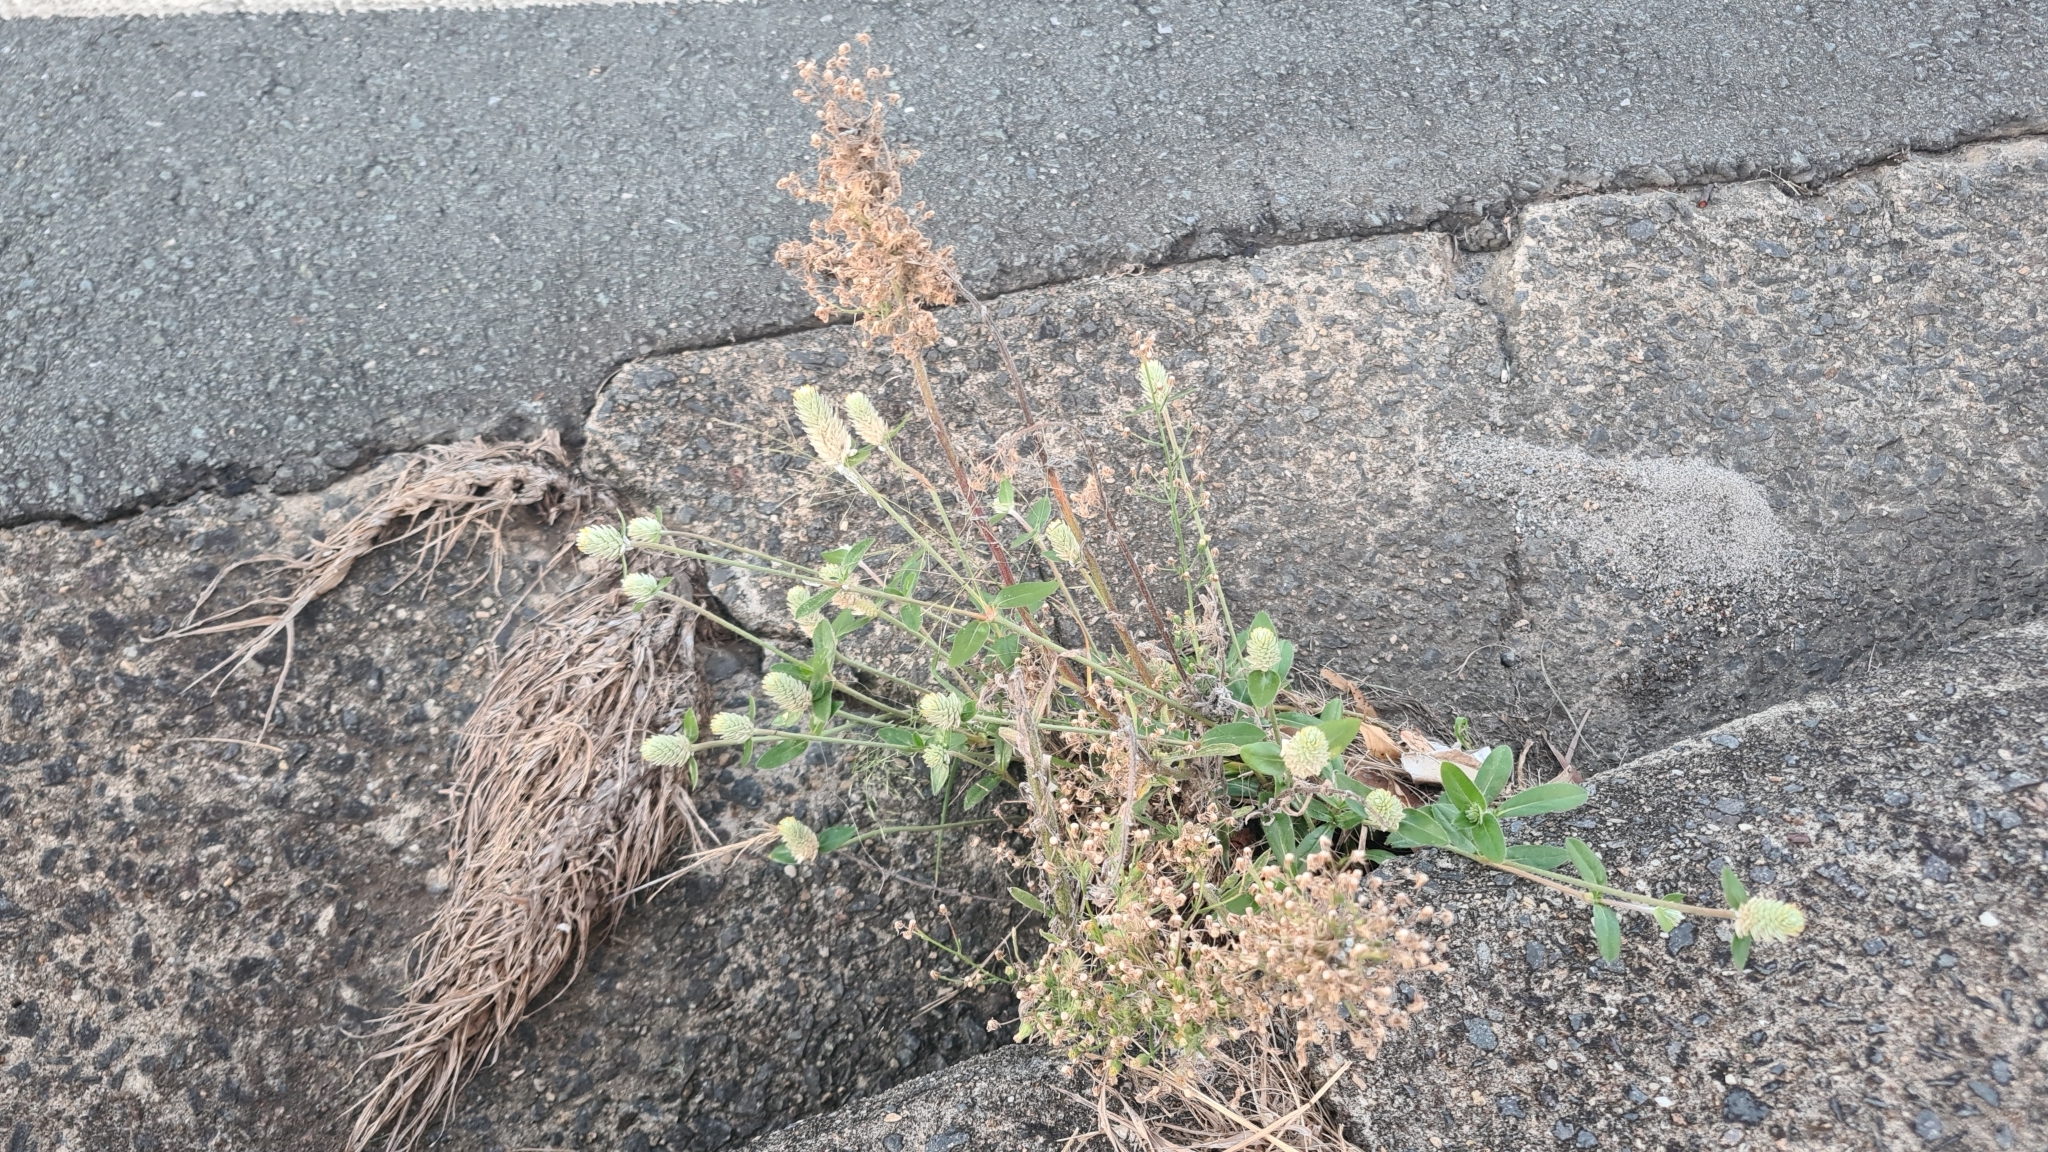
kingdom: Plantae
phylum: Tracheophyta
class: Magnoliopsida
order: Caryophyllales
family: Amaranthaceae
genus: Gomphrena
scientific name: Gomphrena celosioides
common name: Gomphrena-weed
